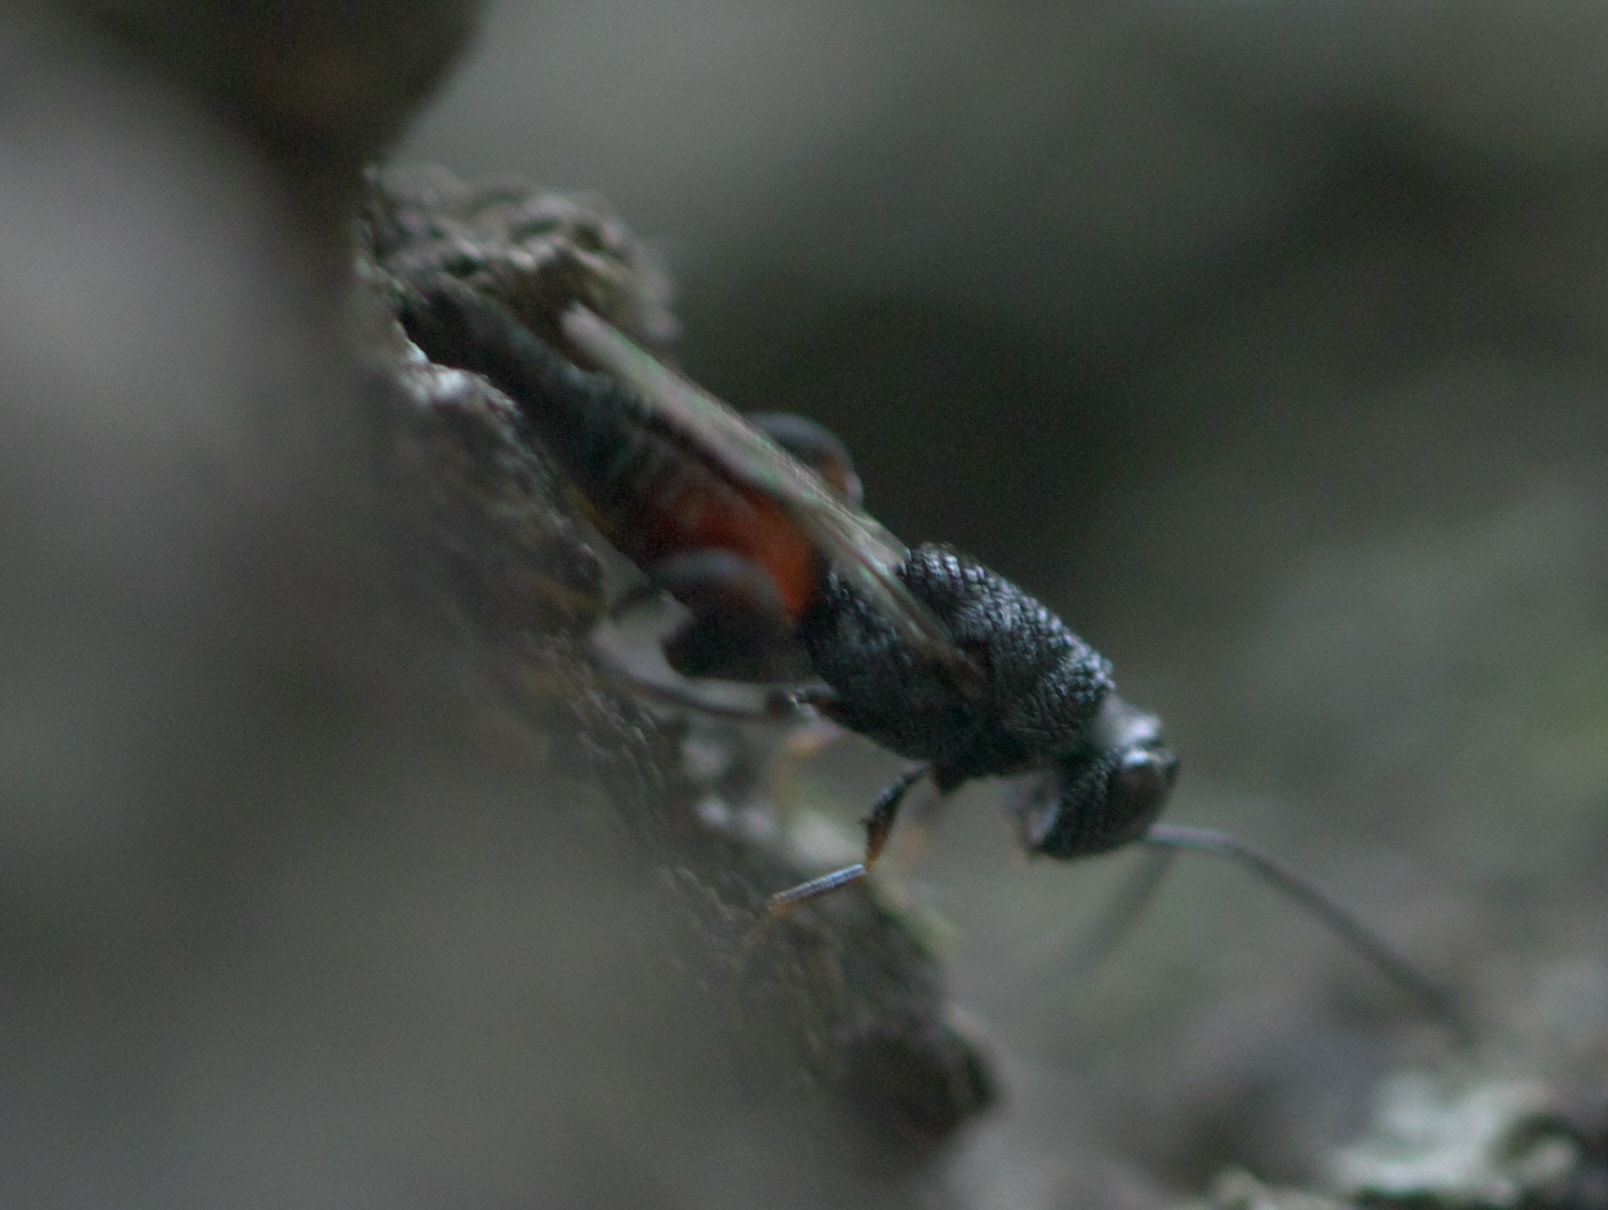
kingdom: Animalia
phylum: Arthropoda
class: Insecta
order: Hymenoptera
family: Chalcididae
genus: Phasgonophora
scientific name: Phasgonophora sulcata
